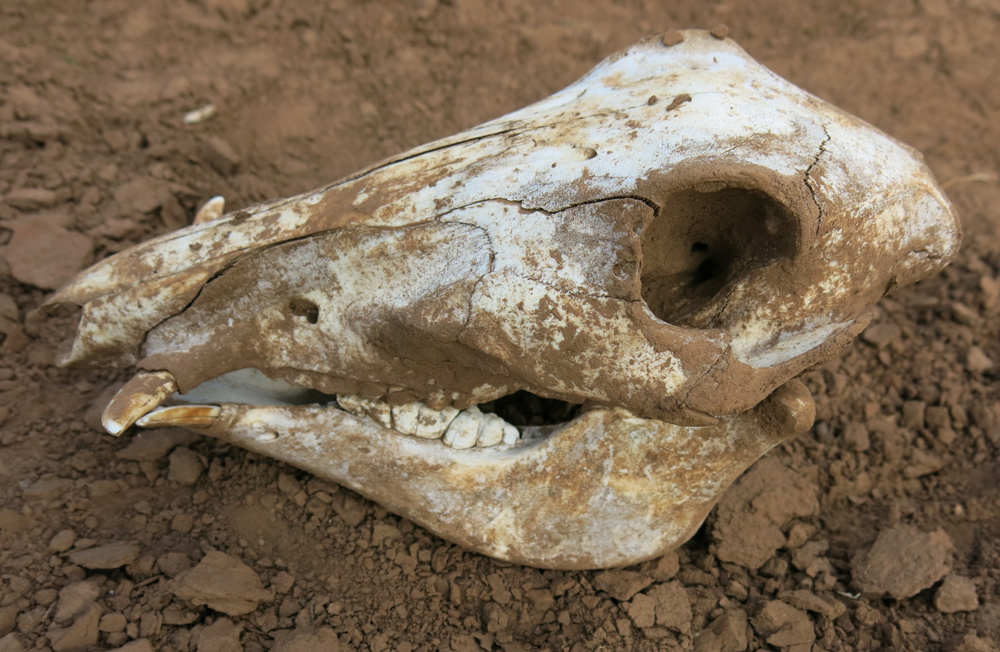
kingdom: Animalia
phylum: Chordata
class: Mammalia
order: Artiodactyla
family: Suidae
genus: Potamochoerus
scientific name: Potamochoerus larvatus
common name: Bushpig
